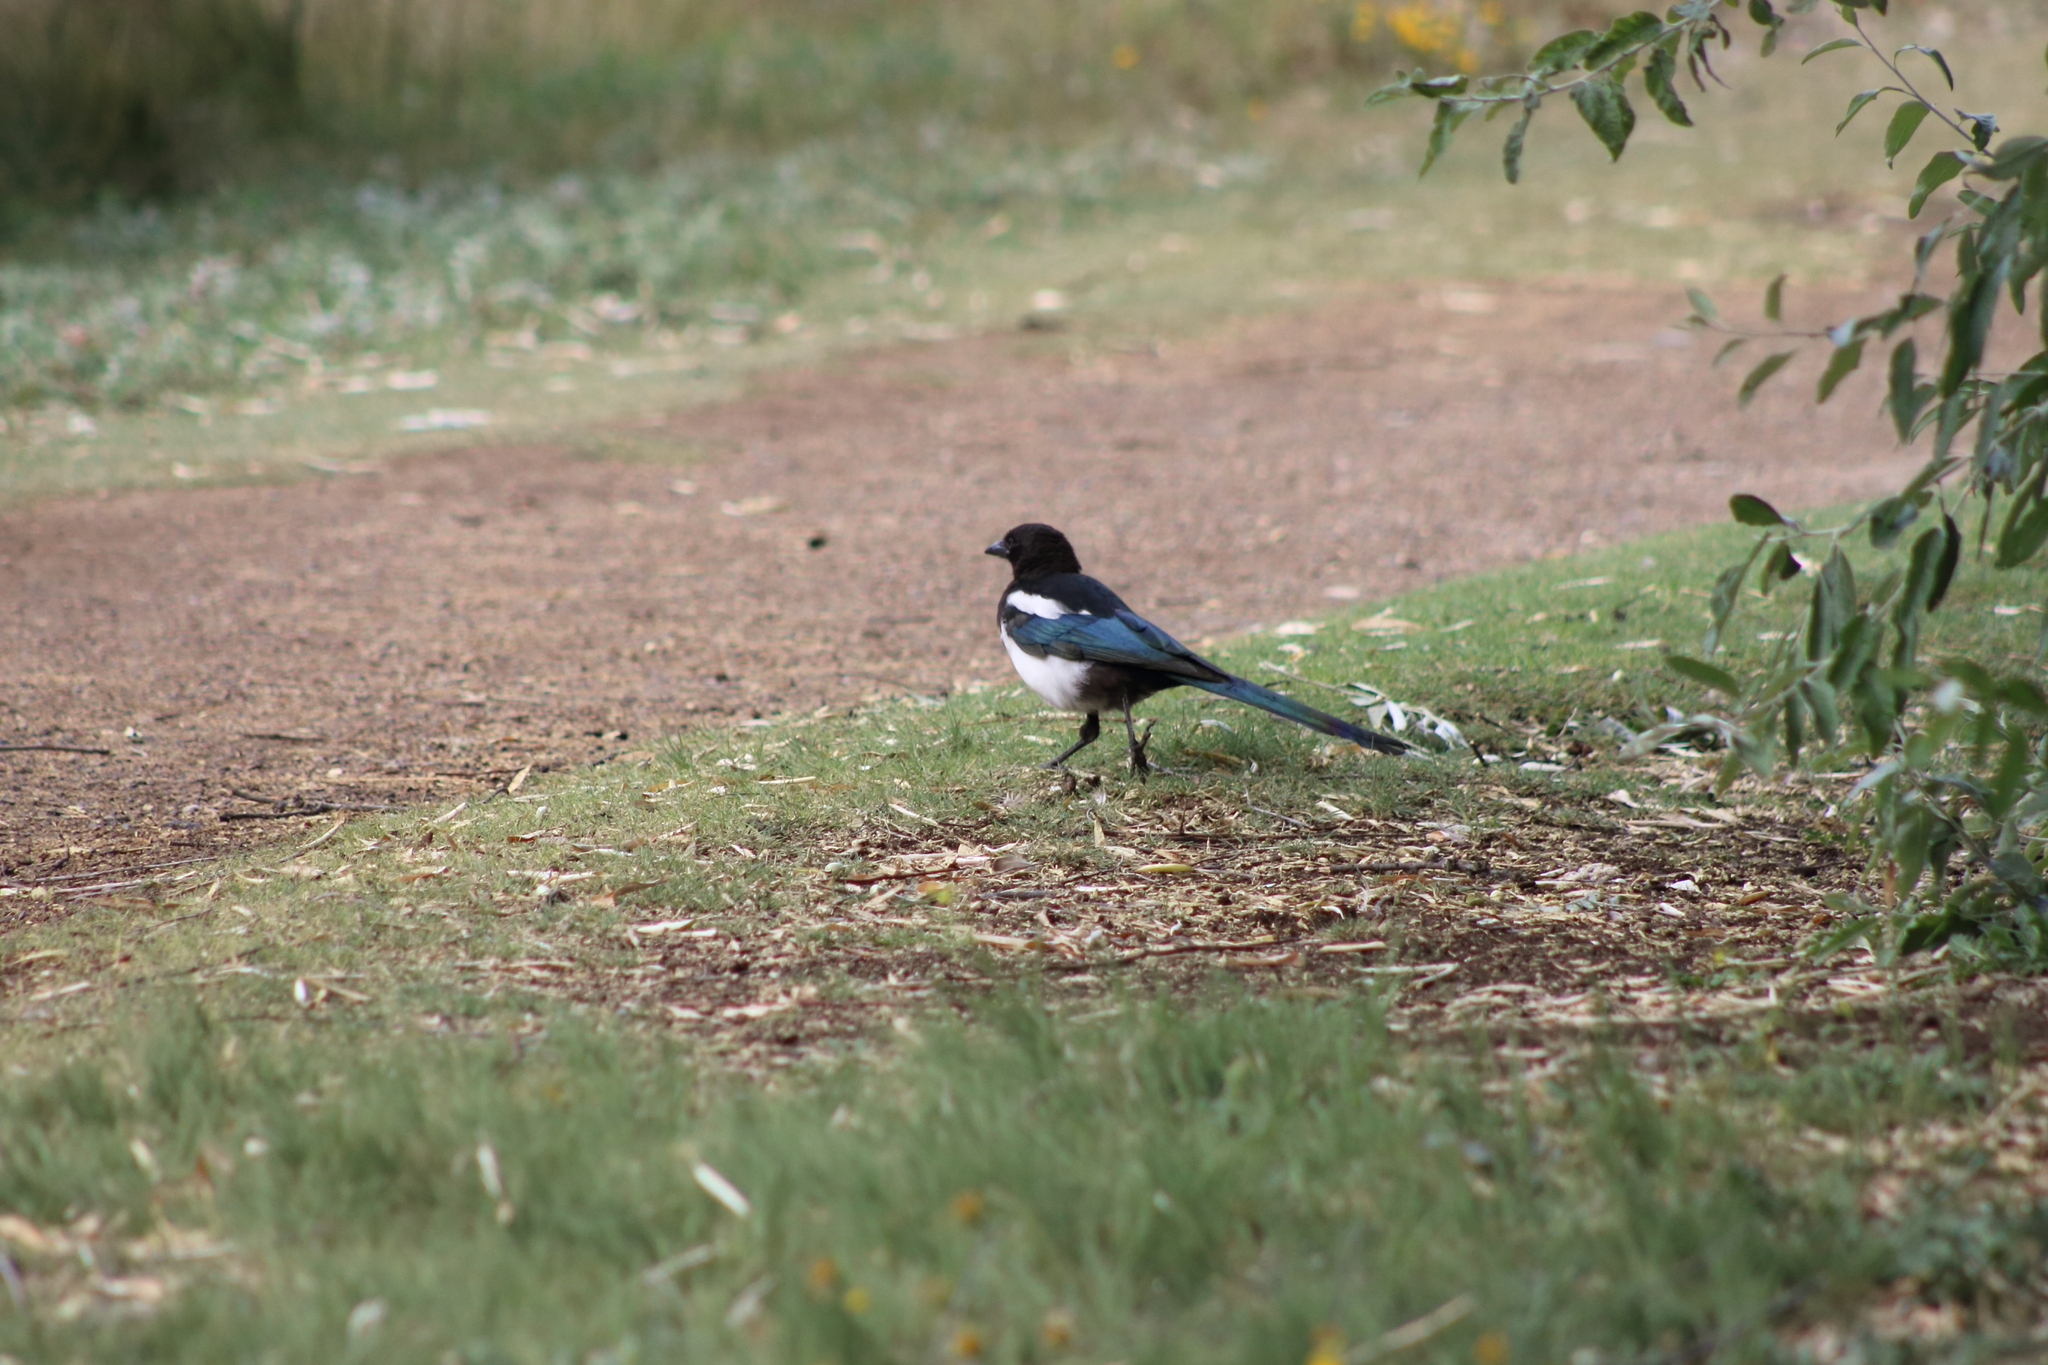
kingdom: Animalia
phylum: Chordata
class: Aves
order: Passeriformes
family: Corvidae
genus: Pica
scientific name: Pica hudsonia
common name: Black-billed magpie
